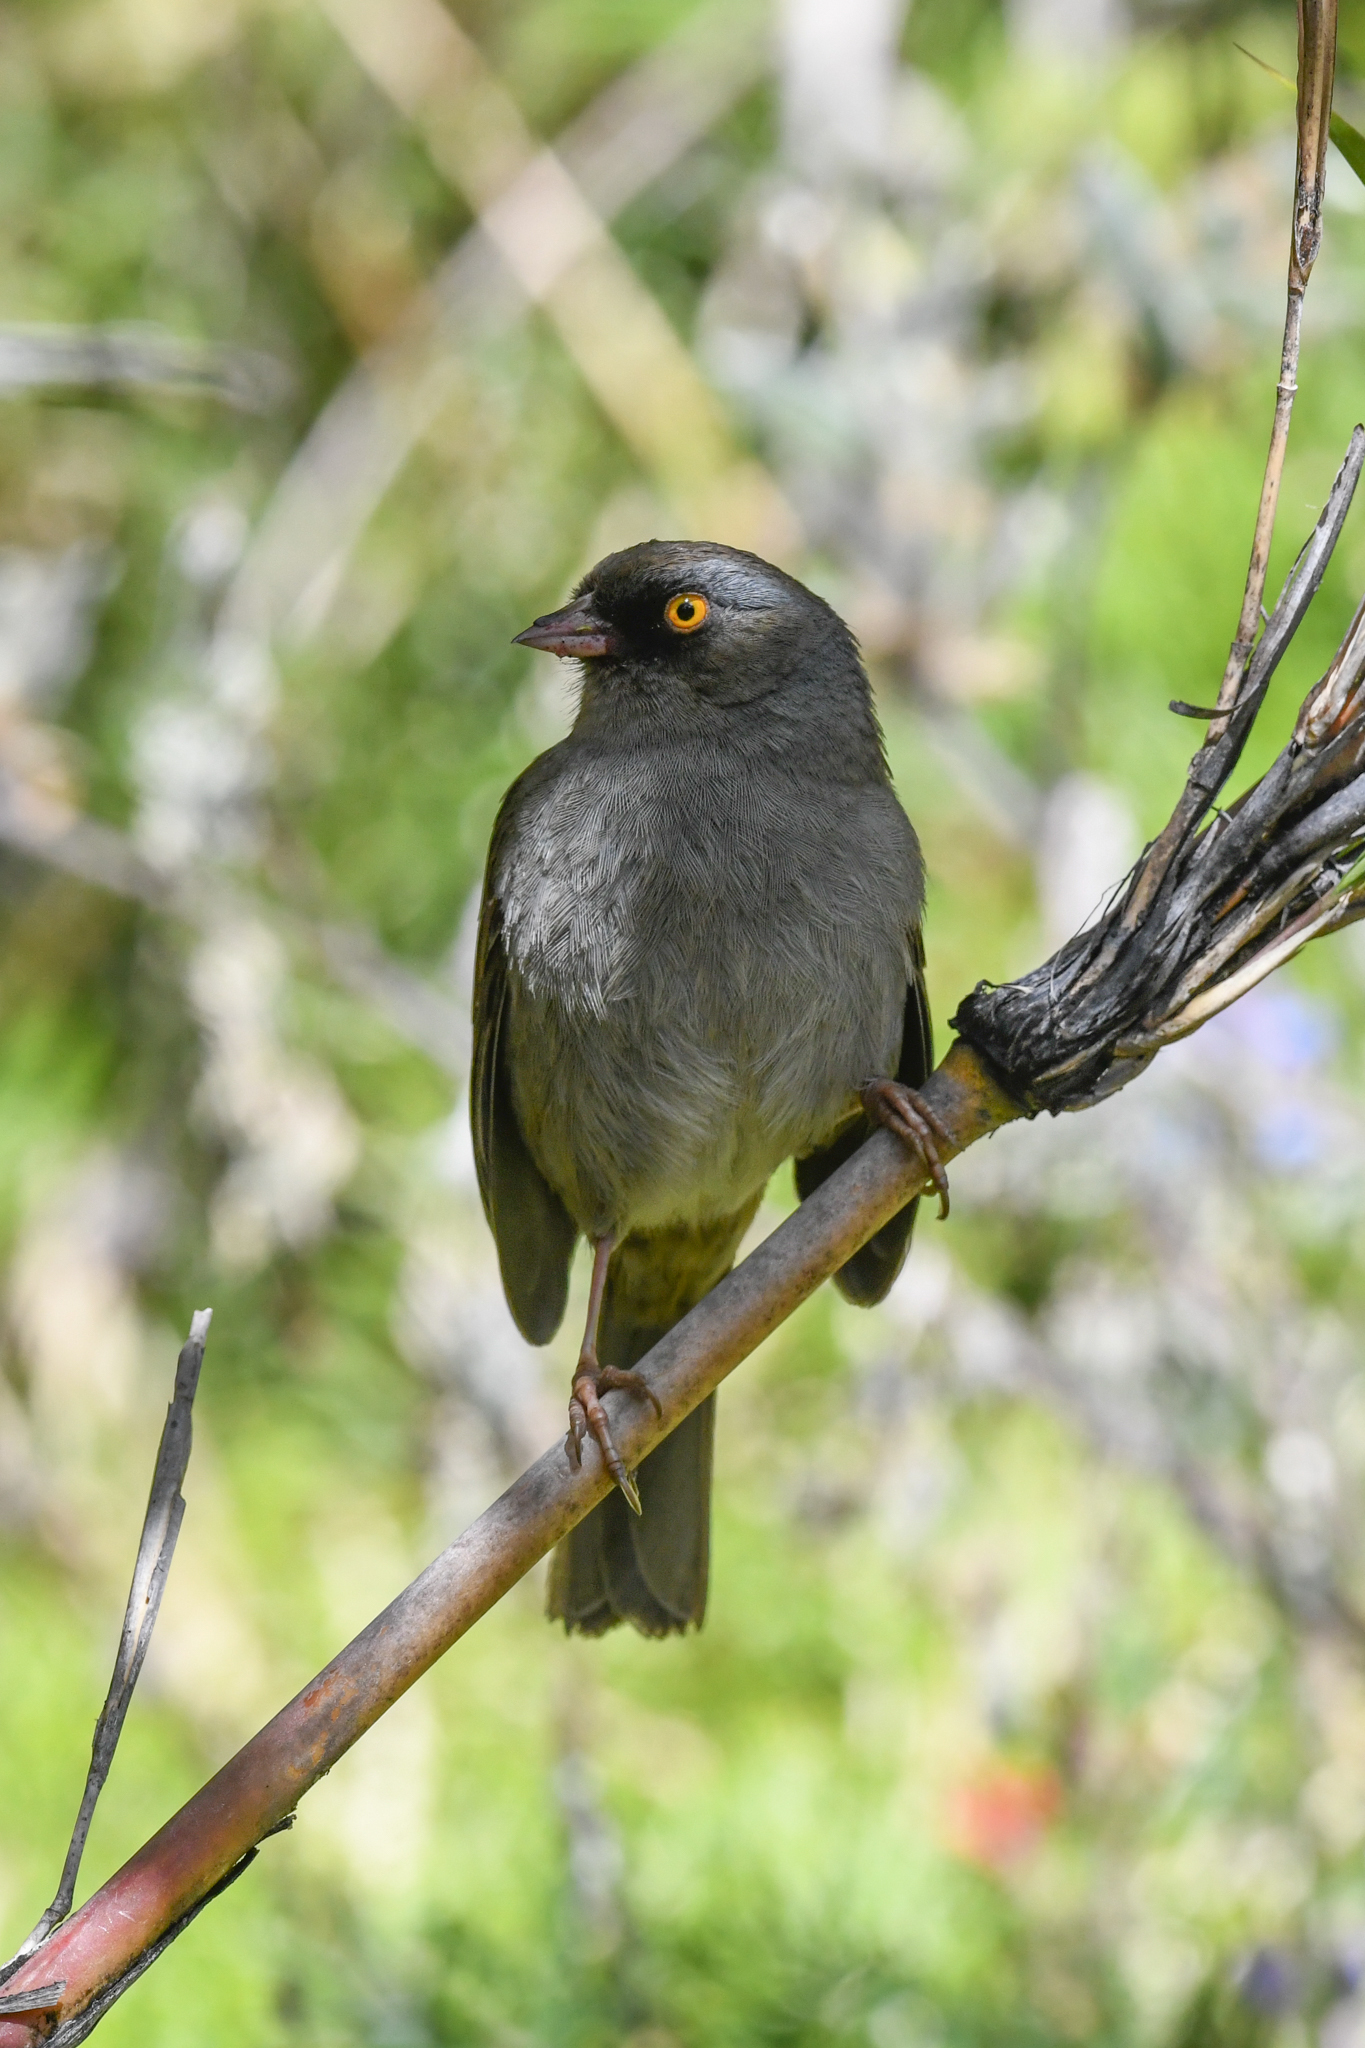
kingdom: Animalia
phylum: Chordata
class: Aves
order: Passeriformes
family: Passerellidae
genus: Junco
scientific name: Junco vulcani
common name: Volcano junco
